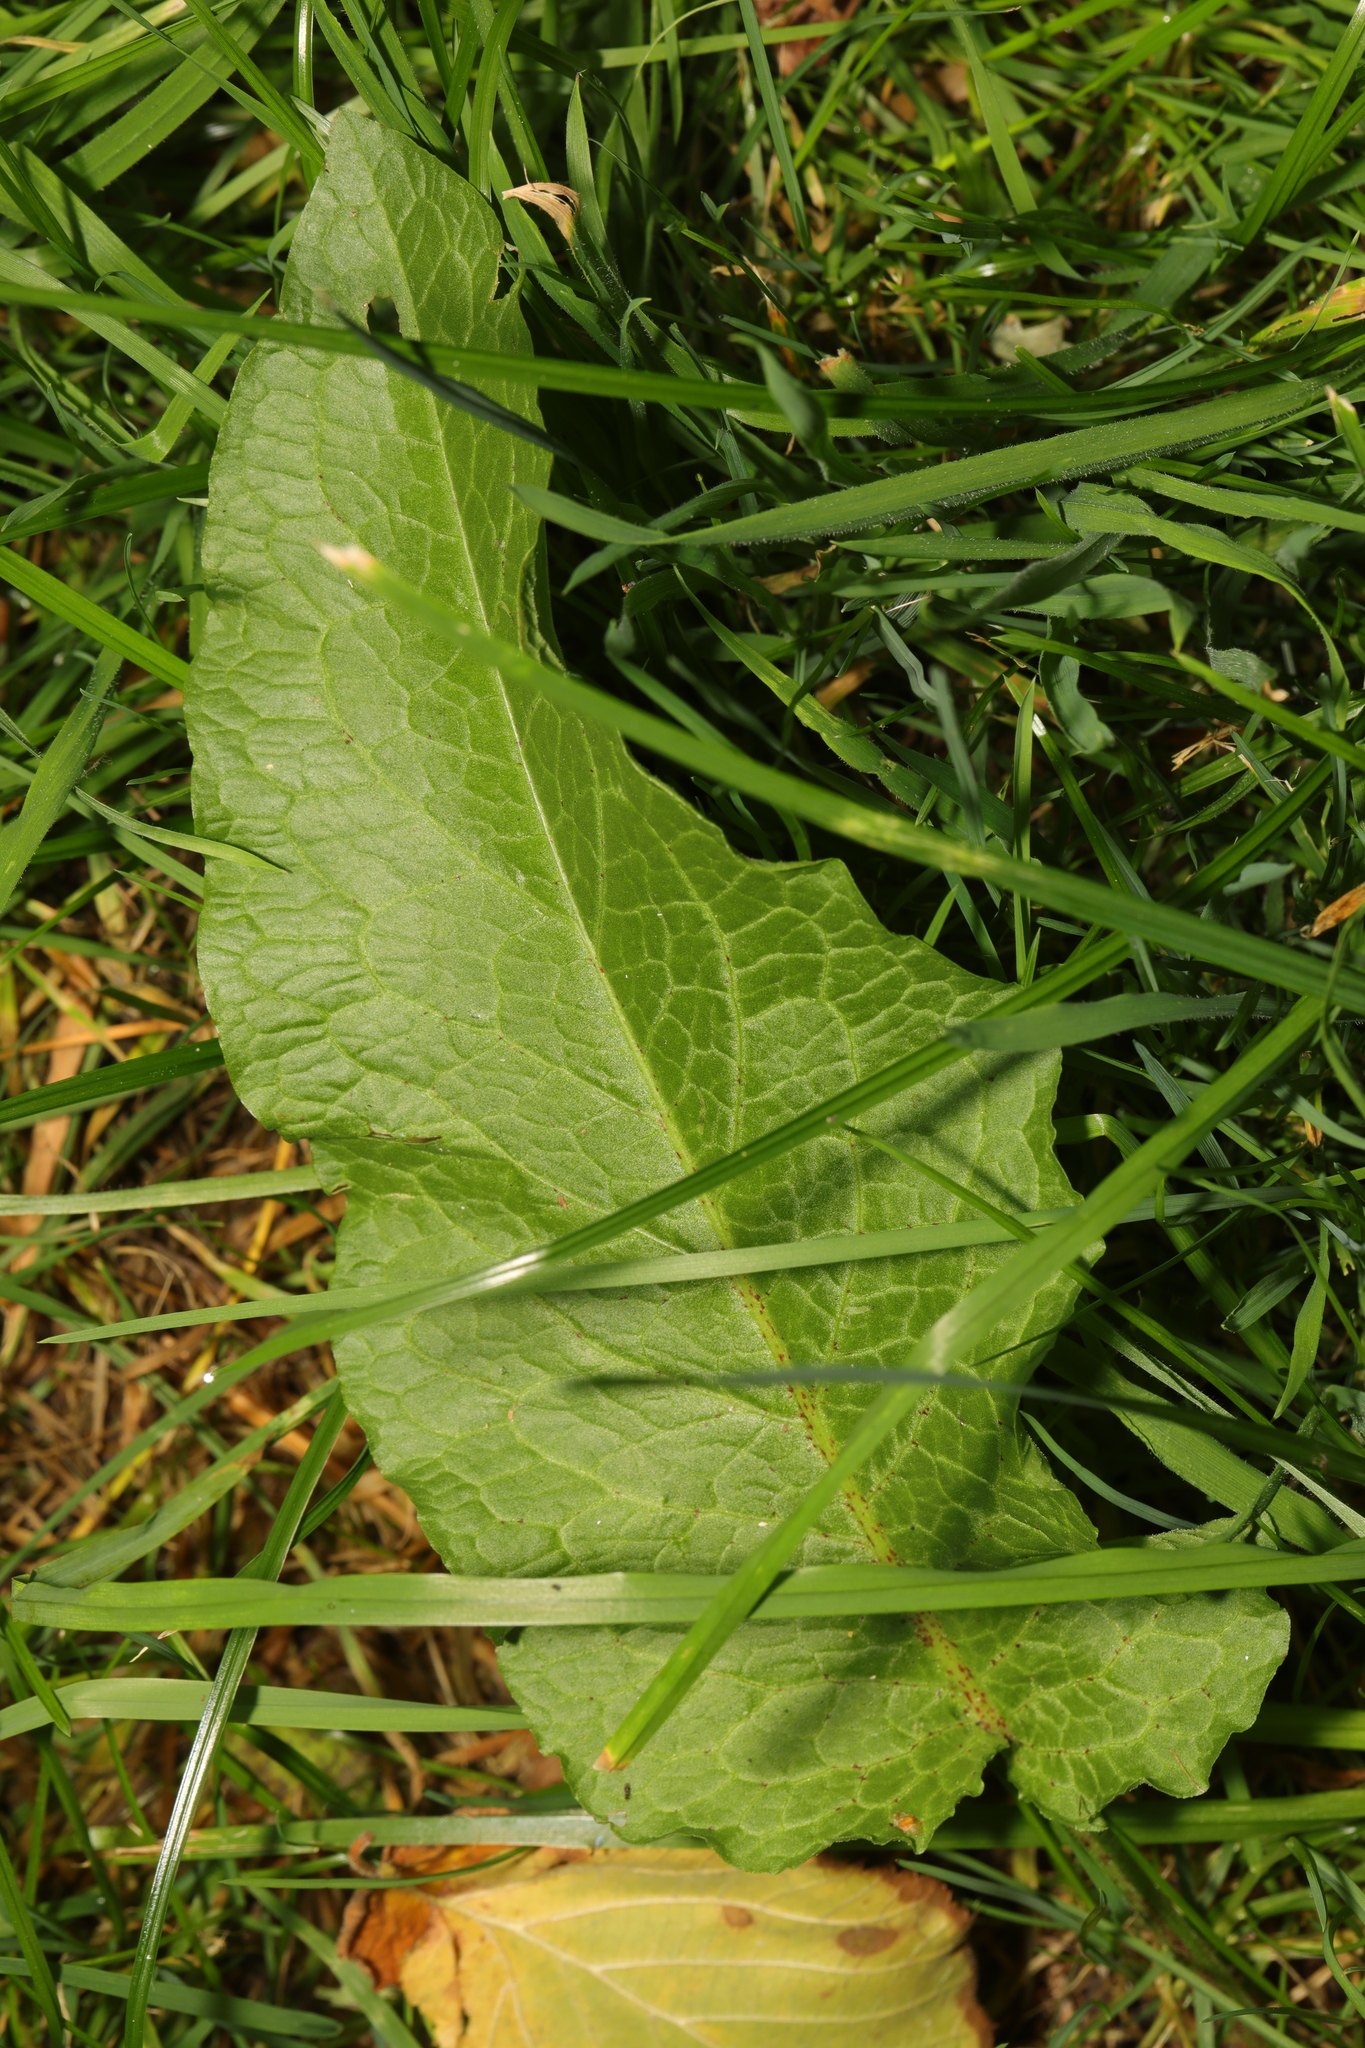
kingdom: Plantae
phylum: Tracheophyta
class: Magnoliopsida
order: Caryophyllales
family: Polygonaceae
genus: Rumex
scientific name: Rumex obtusifolius
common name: Bitter dock
